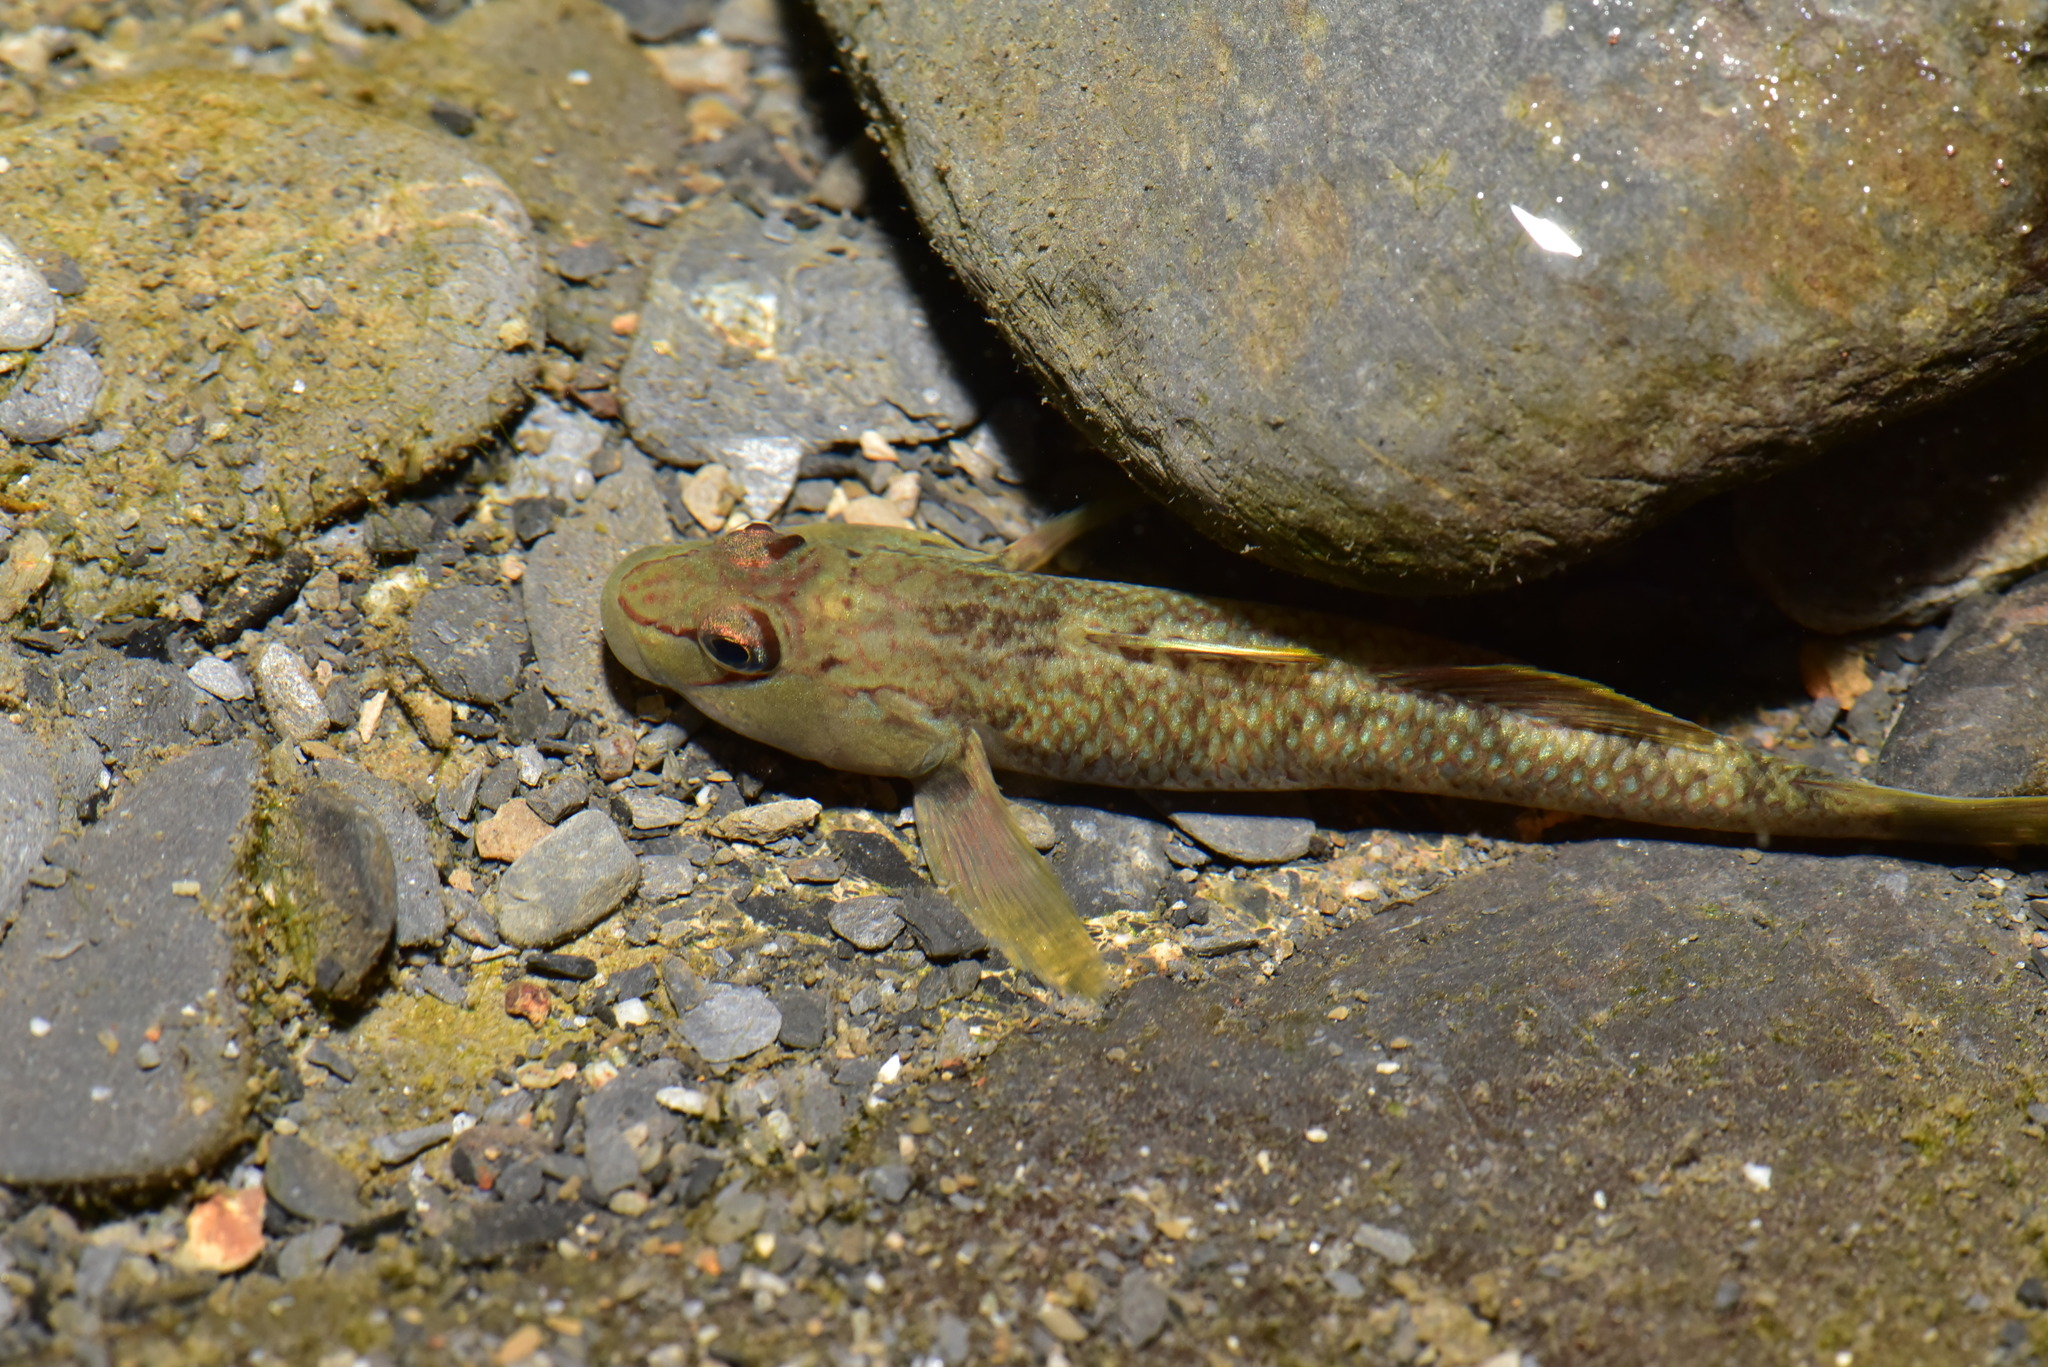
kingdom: Animalia
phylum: Chordata
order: Perciformes
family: Gobiidae
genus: Rhinogobius
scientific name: Rhinogobius candidianus
